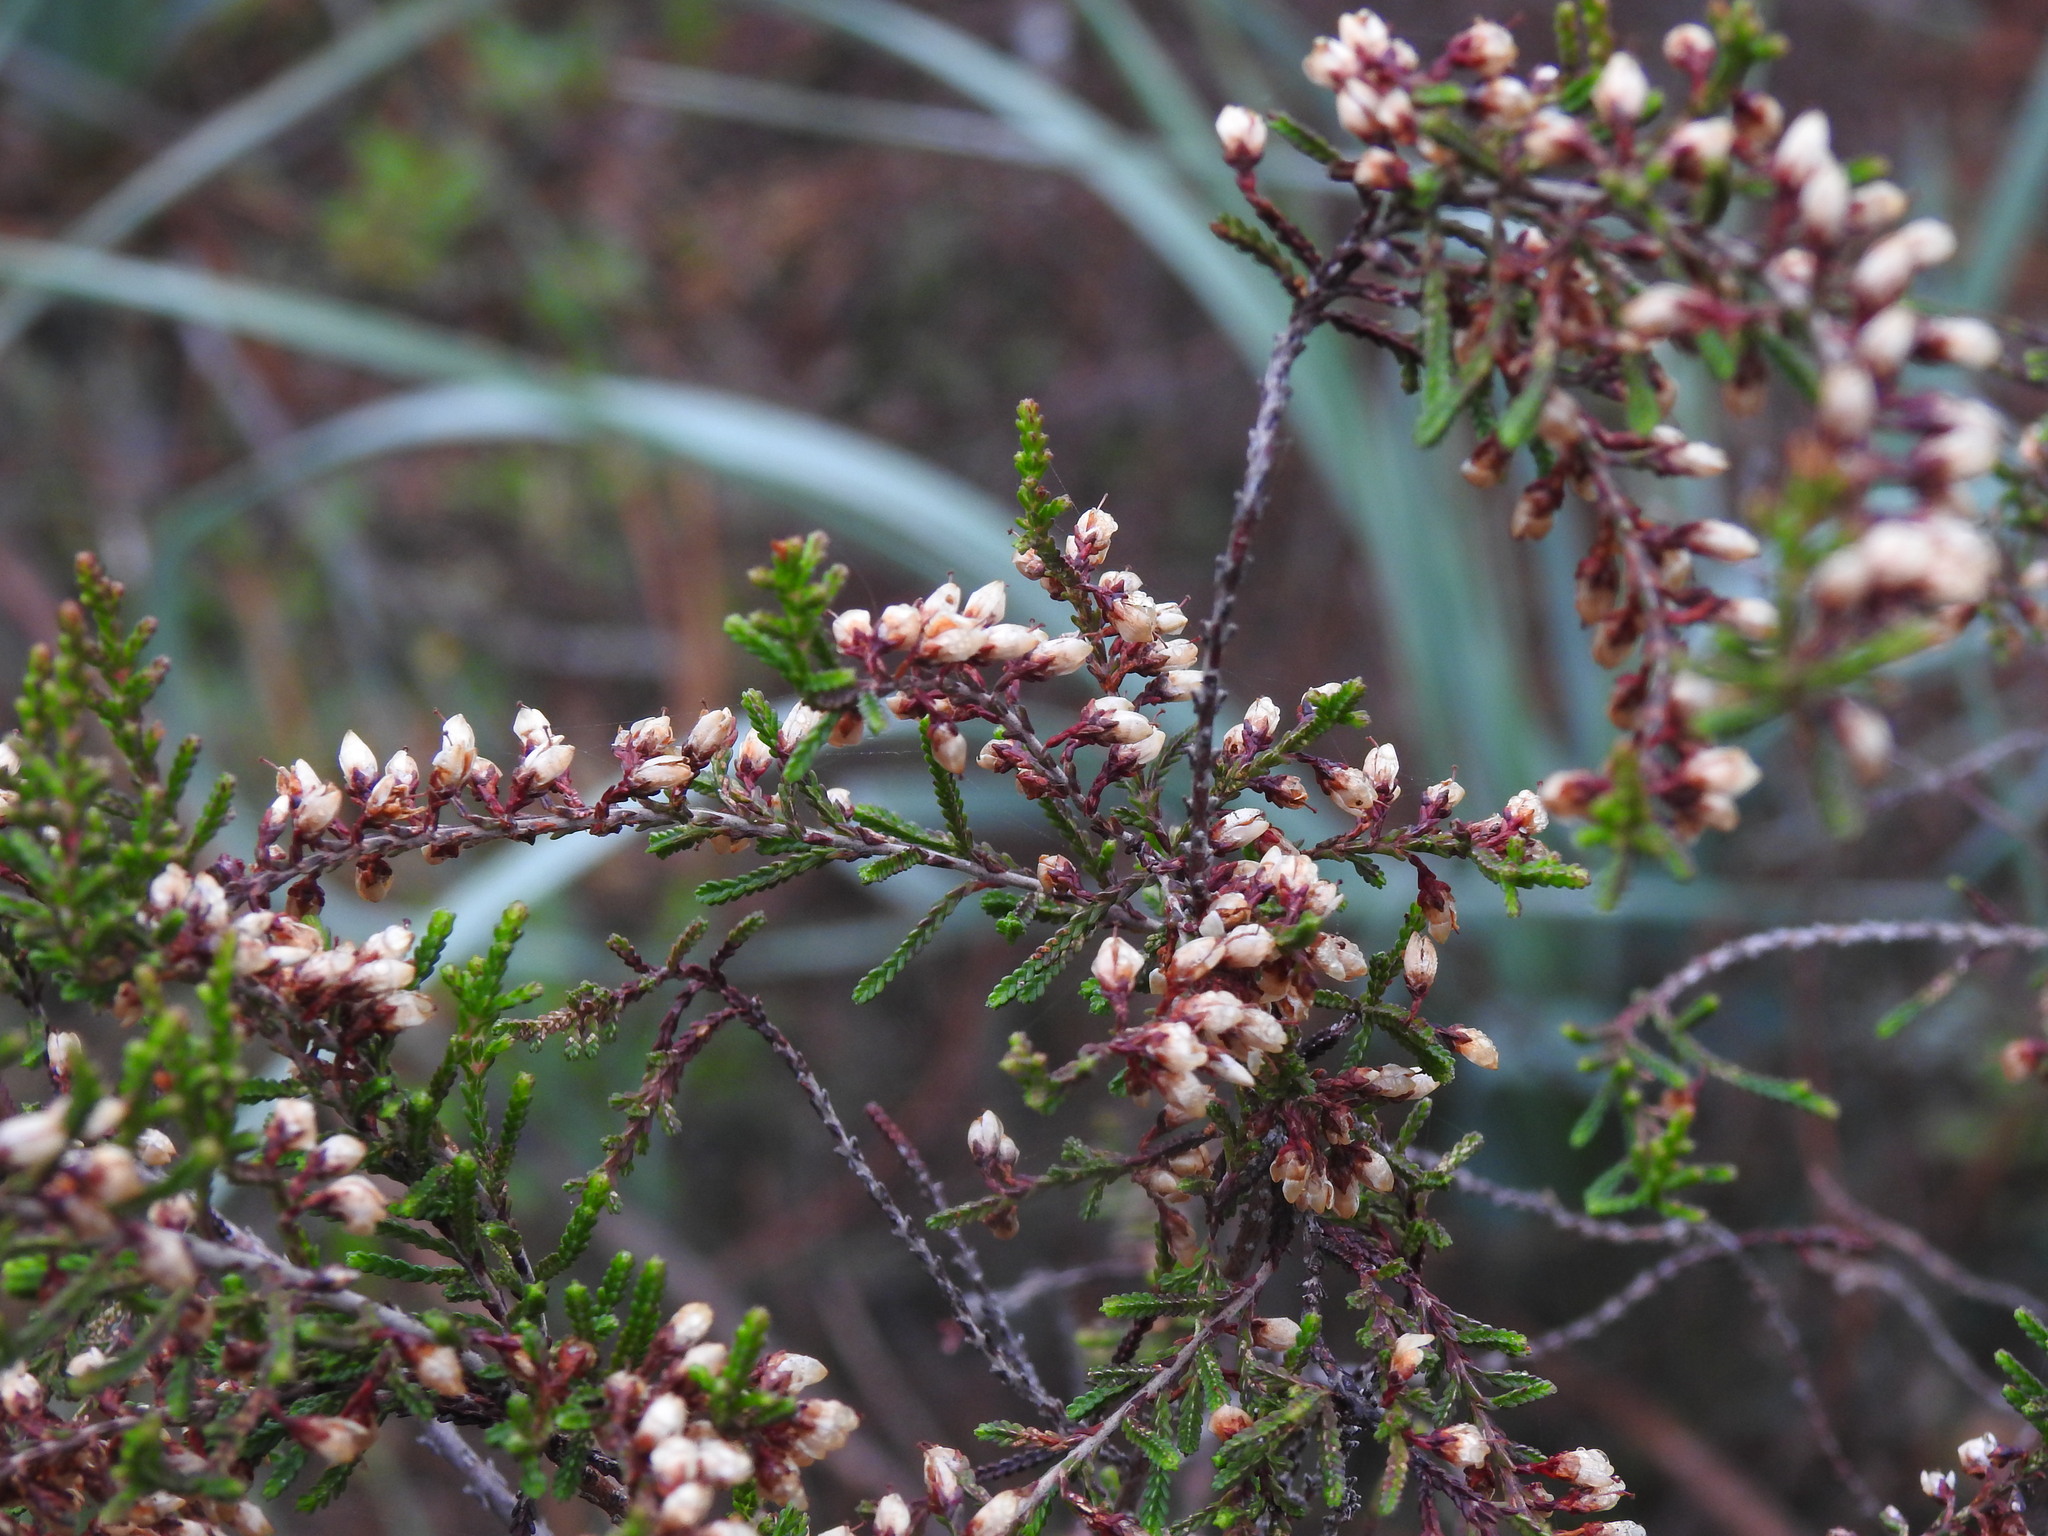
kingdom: Plantae
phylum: Tracheophyta
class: Magnoliopsida
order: Ericales
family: Ericaceae
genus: Calluna
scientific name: Calluna vulgaris
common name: Heather
